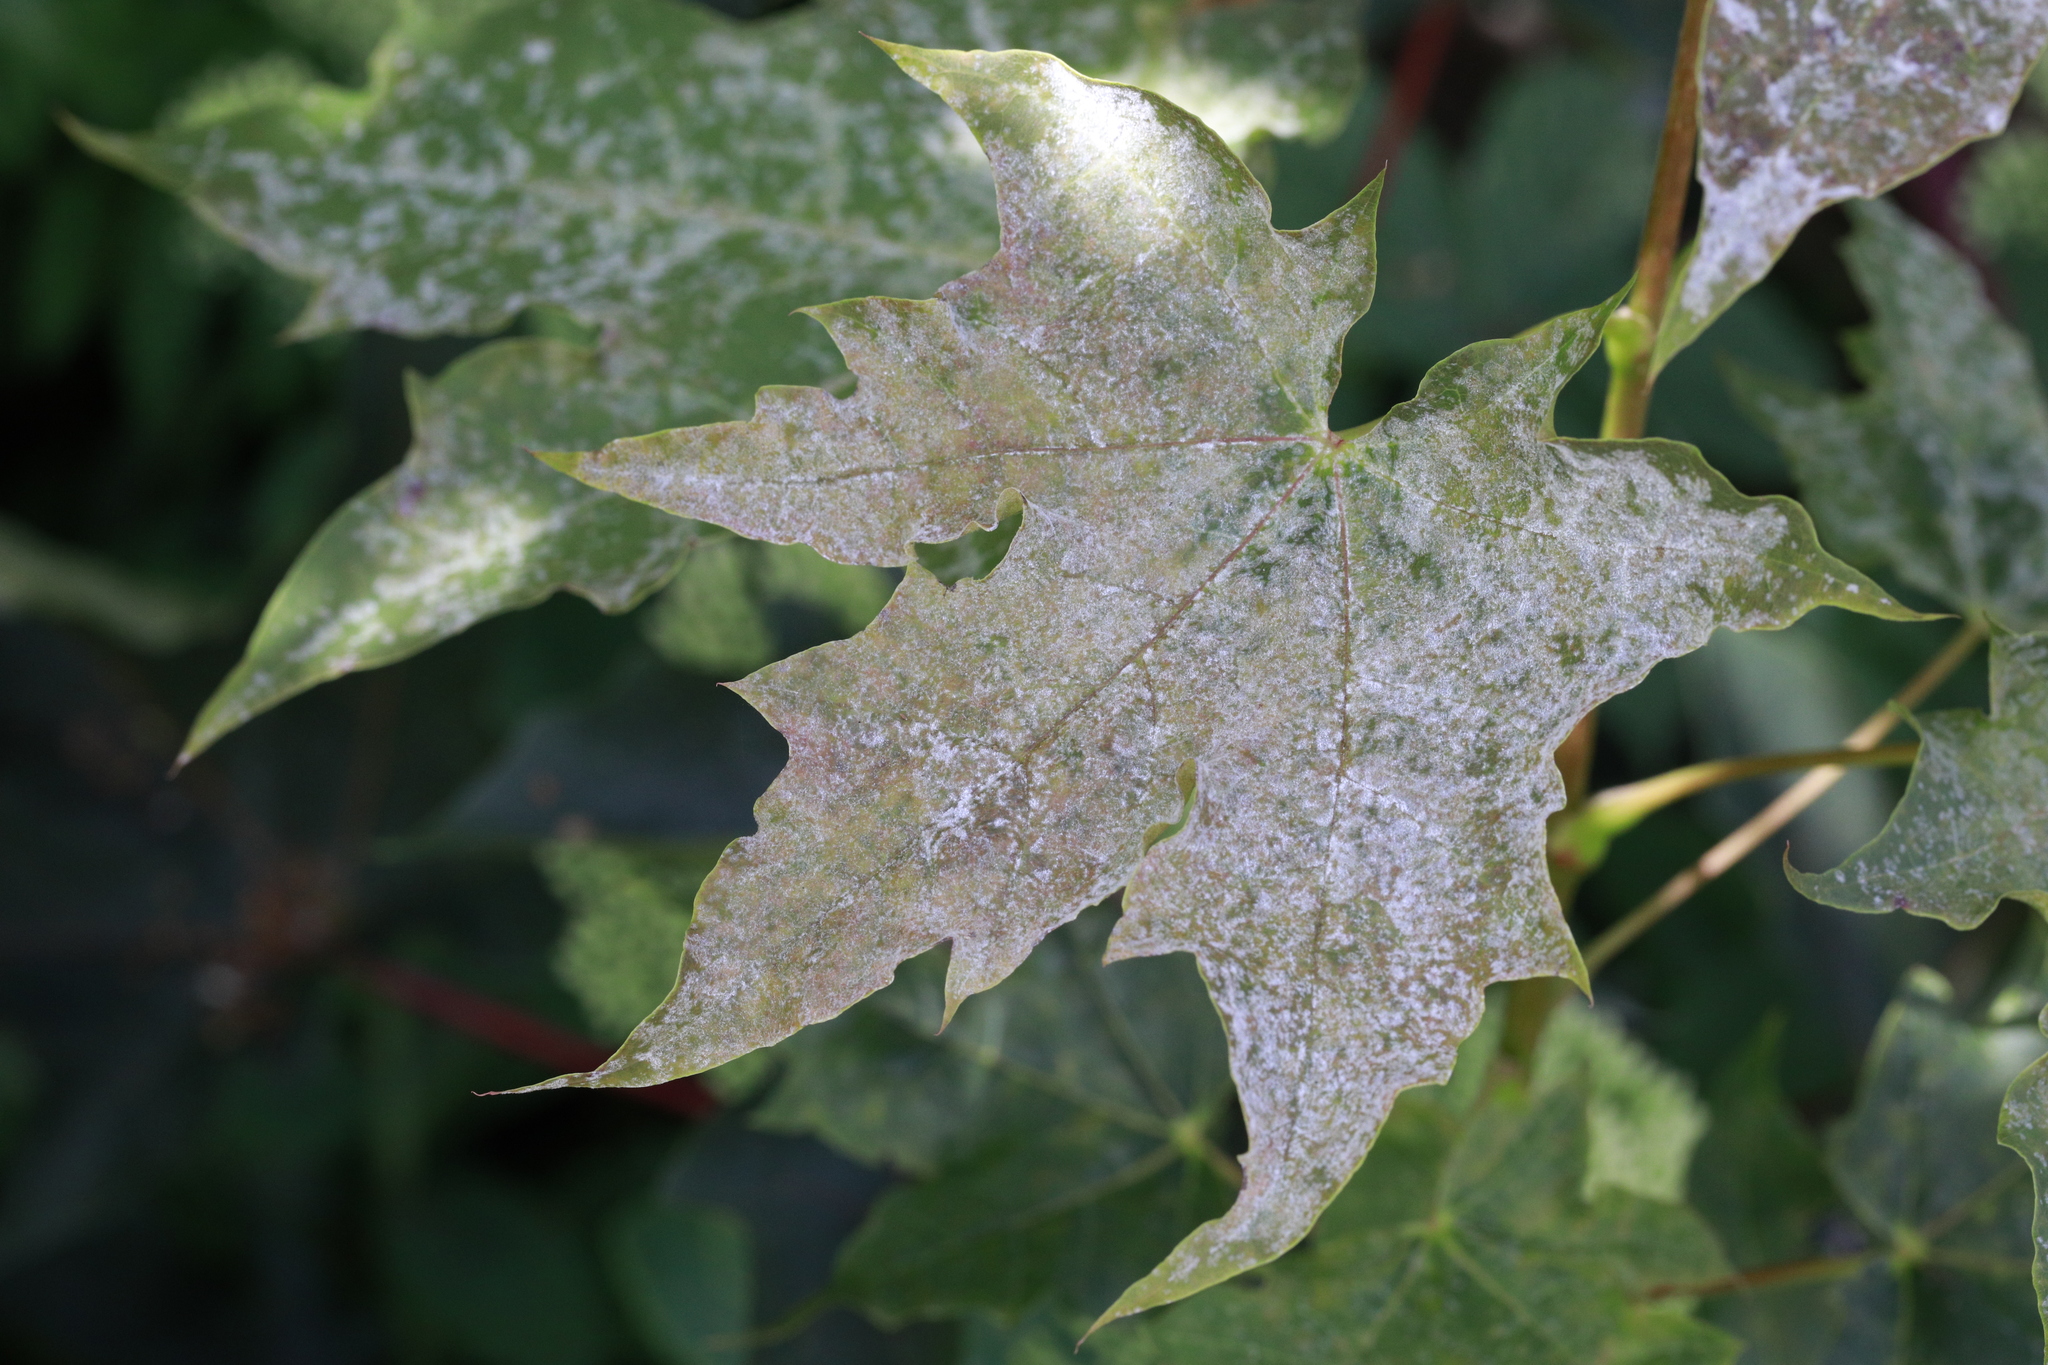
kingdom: Plantae
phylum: Tracheophyta
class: Magnoliopsida
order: Sapindales
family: Sapindaceae
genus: Acer
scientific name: Acer platanoides
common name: Norway maple
